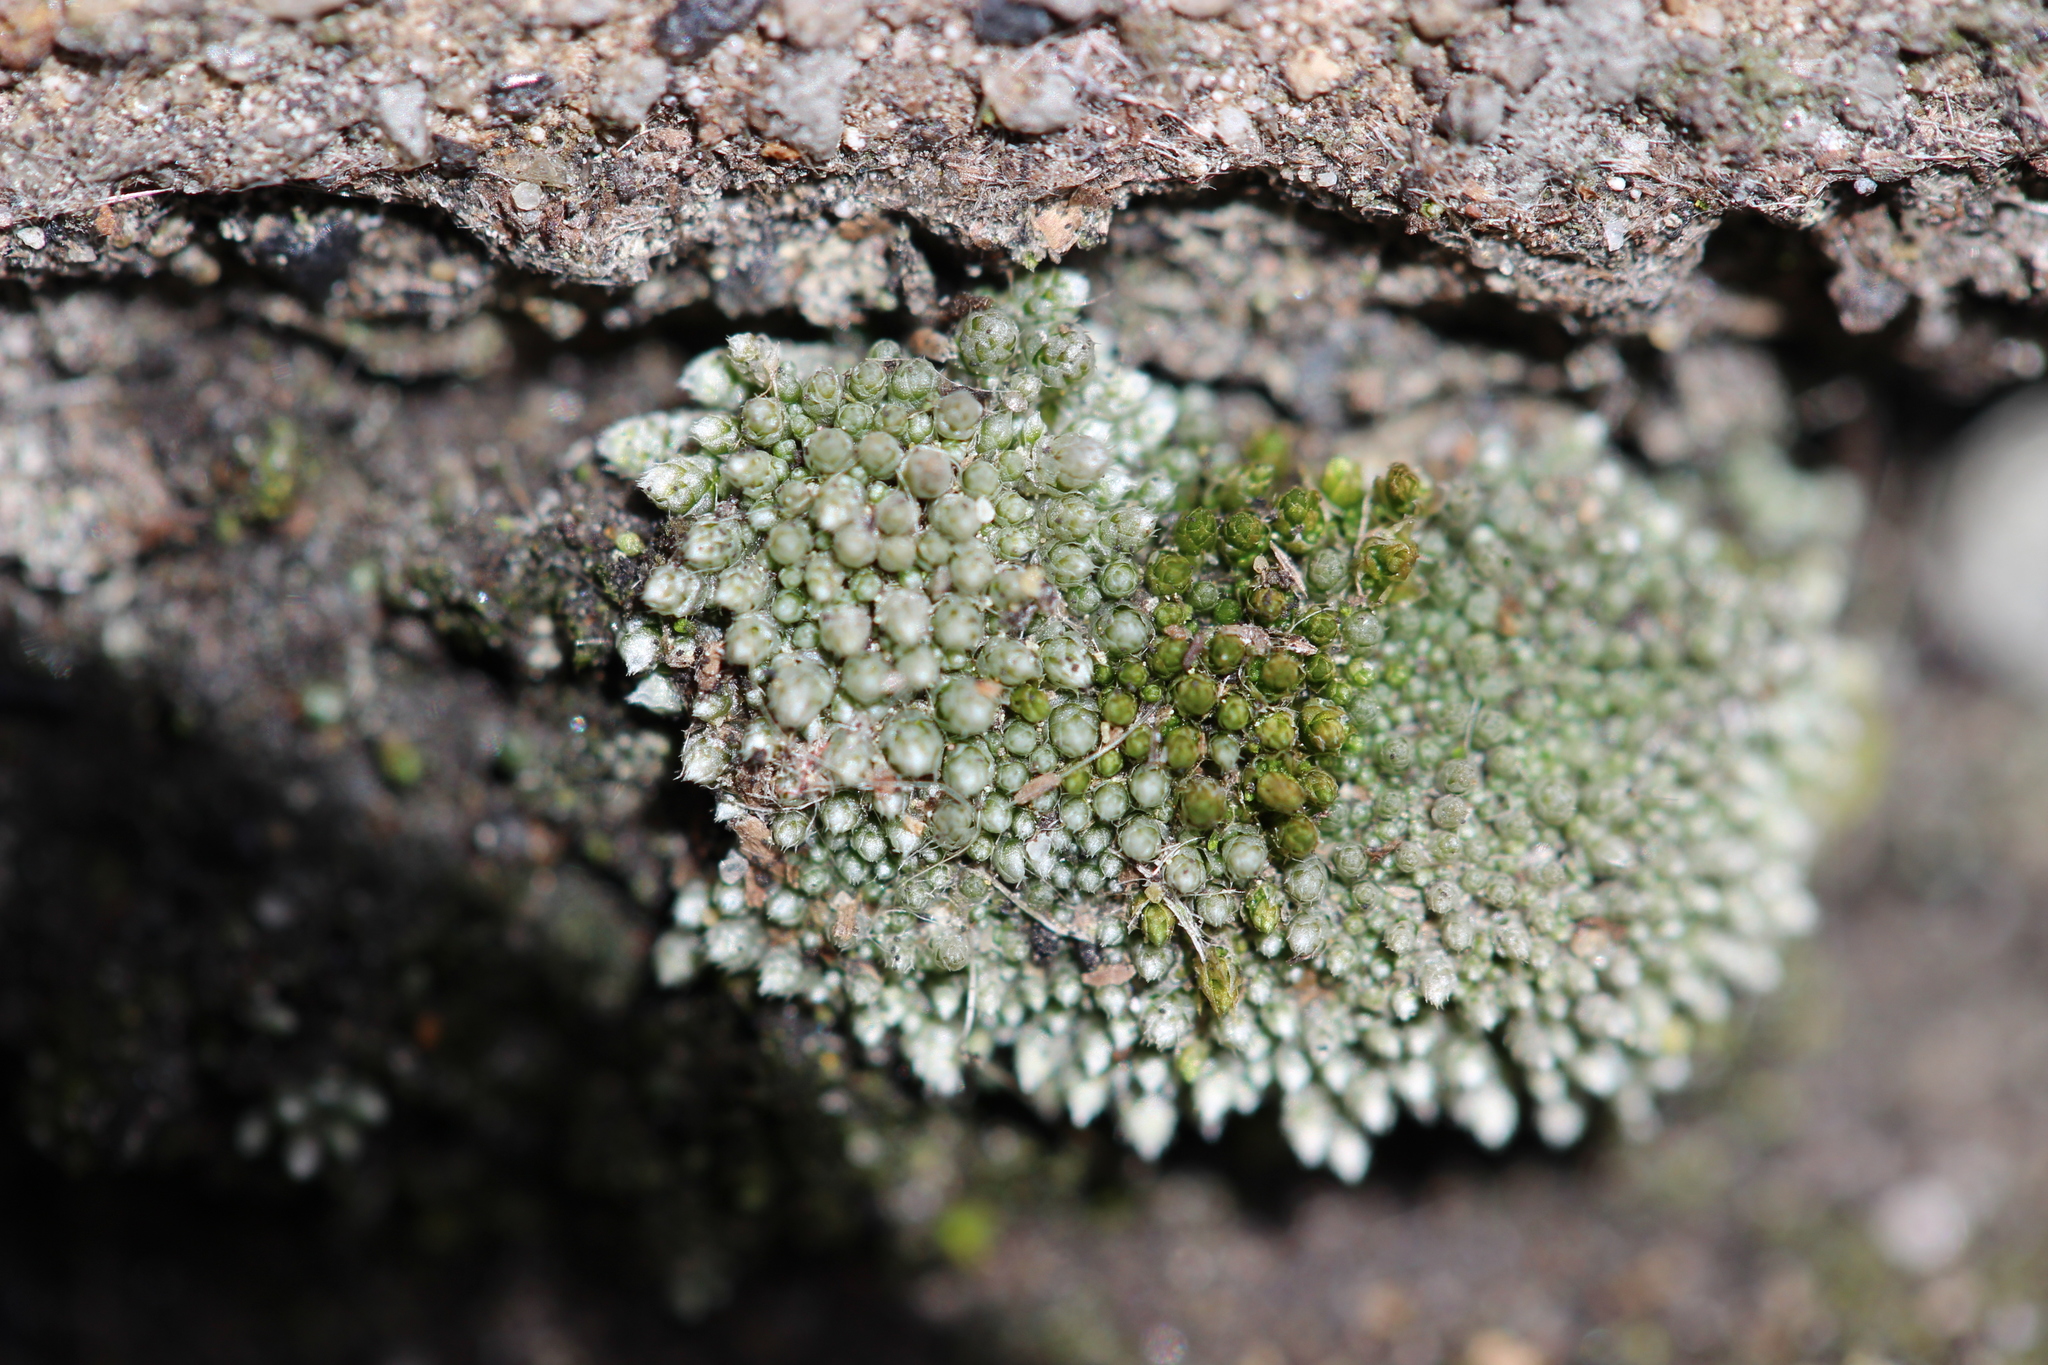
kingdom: Plantae
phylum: Bryophyta
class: Bryopsida
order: Bryales
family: Bryaceae
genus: Bryum
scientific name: Bryum argenteum
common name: Silver-moss
